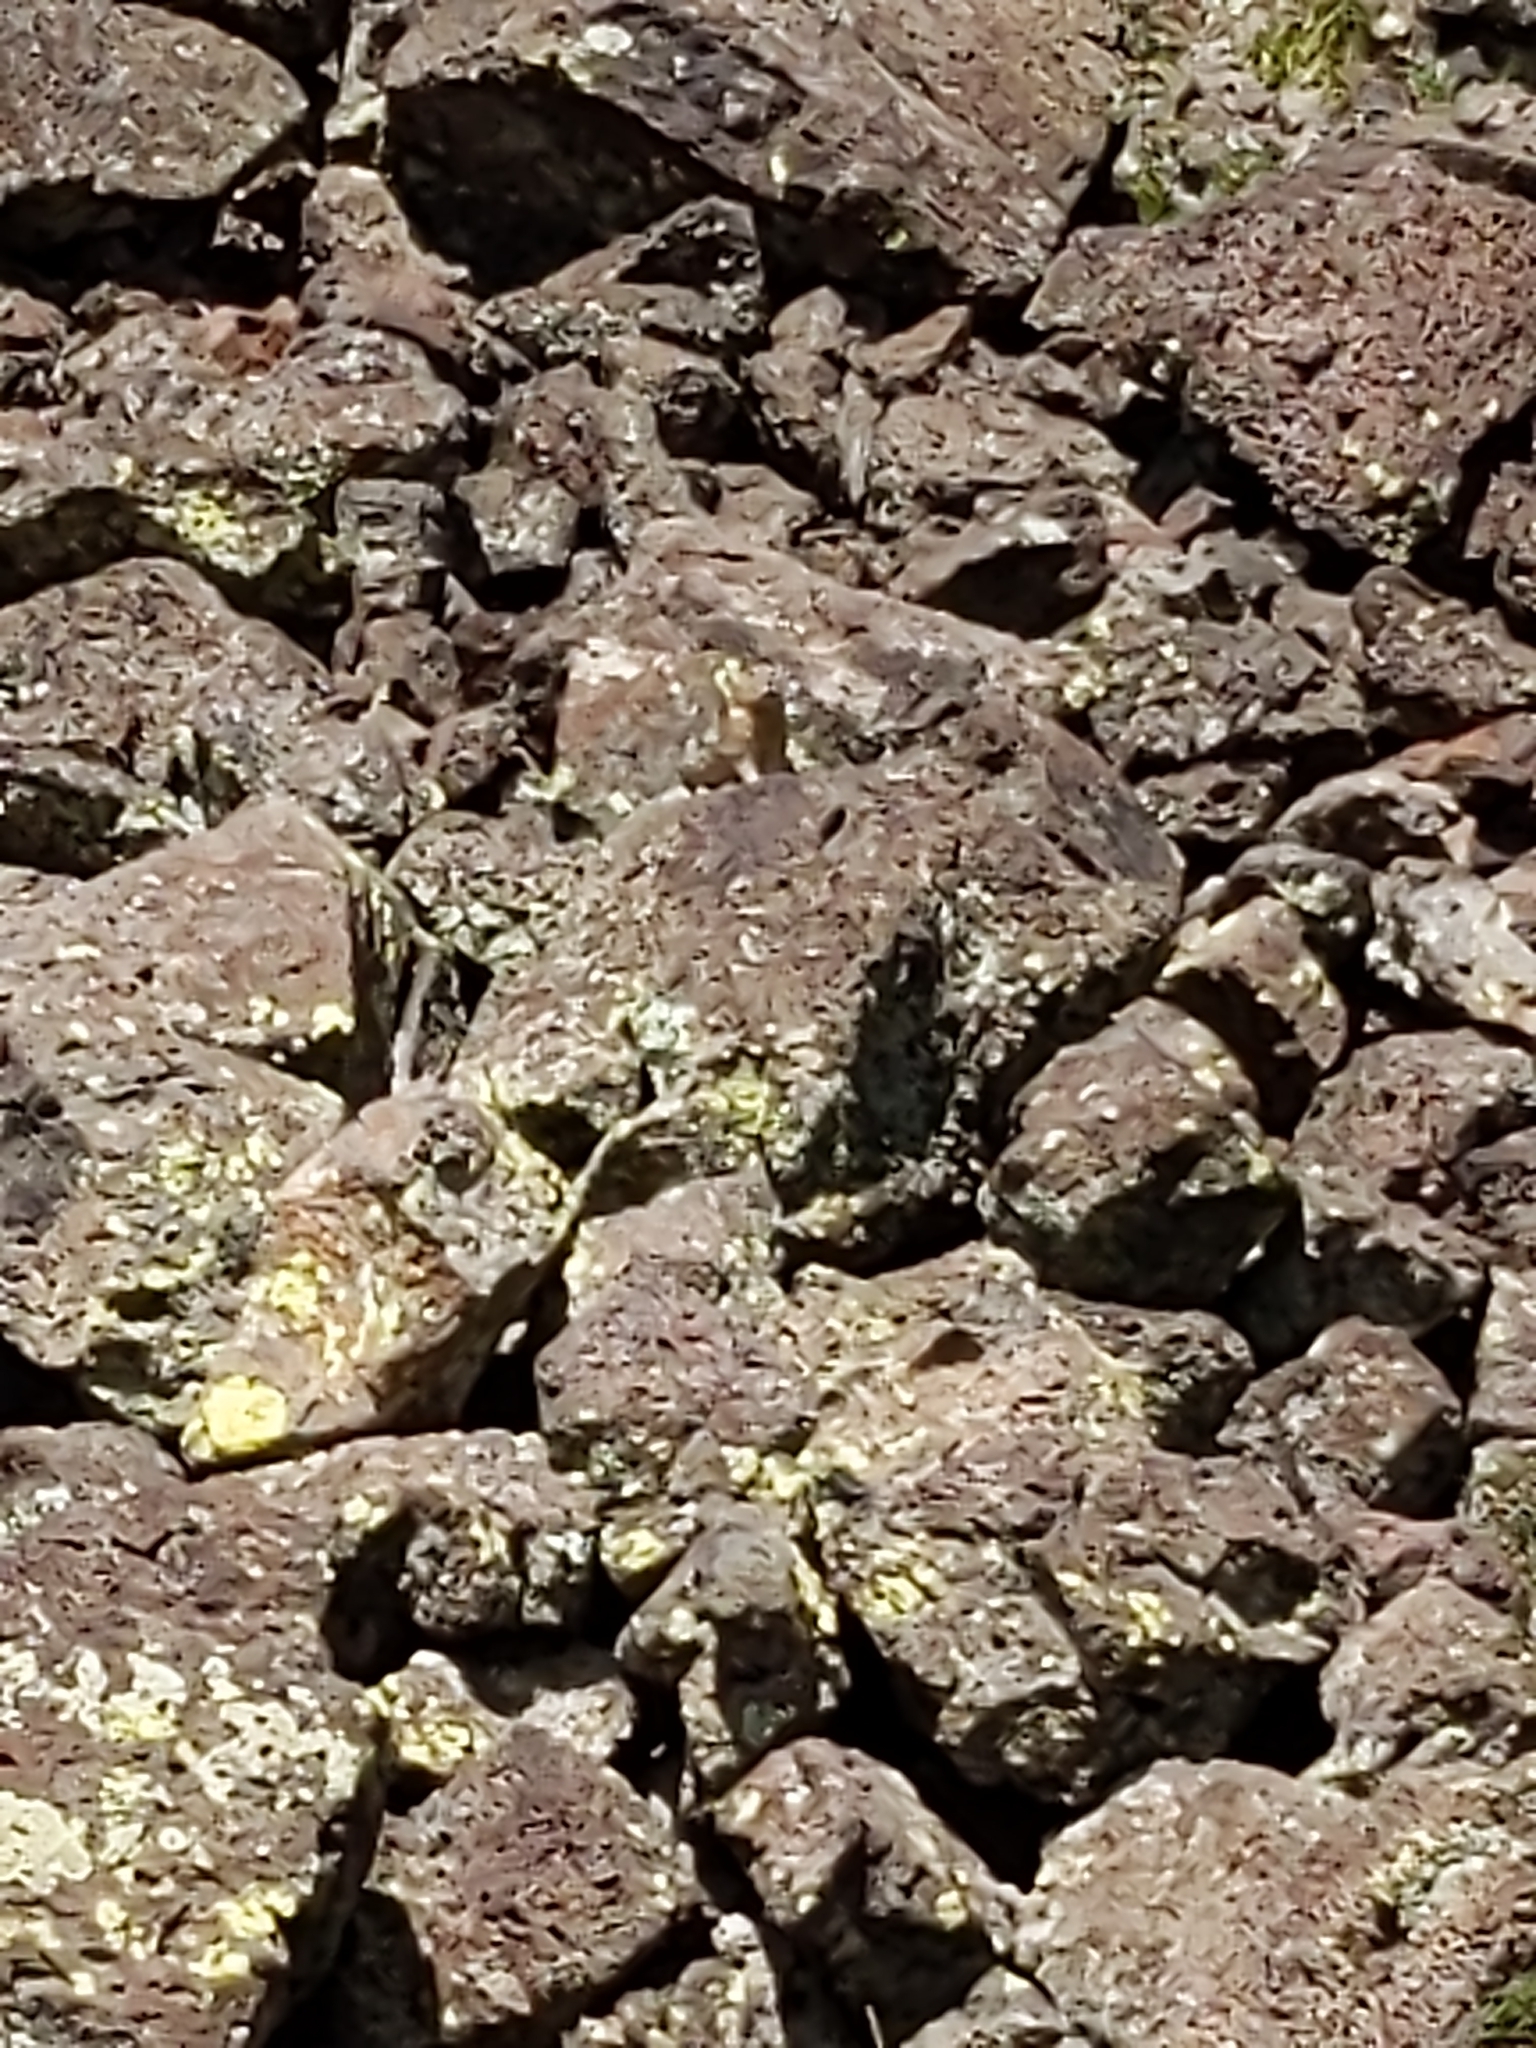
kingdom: Animalia
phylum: Chordata
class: Mammalia
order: Lagomorpha
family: Ochotonidae
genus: Ochotona
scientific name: Ochotona princeps
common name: American pika
